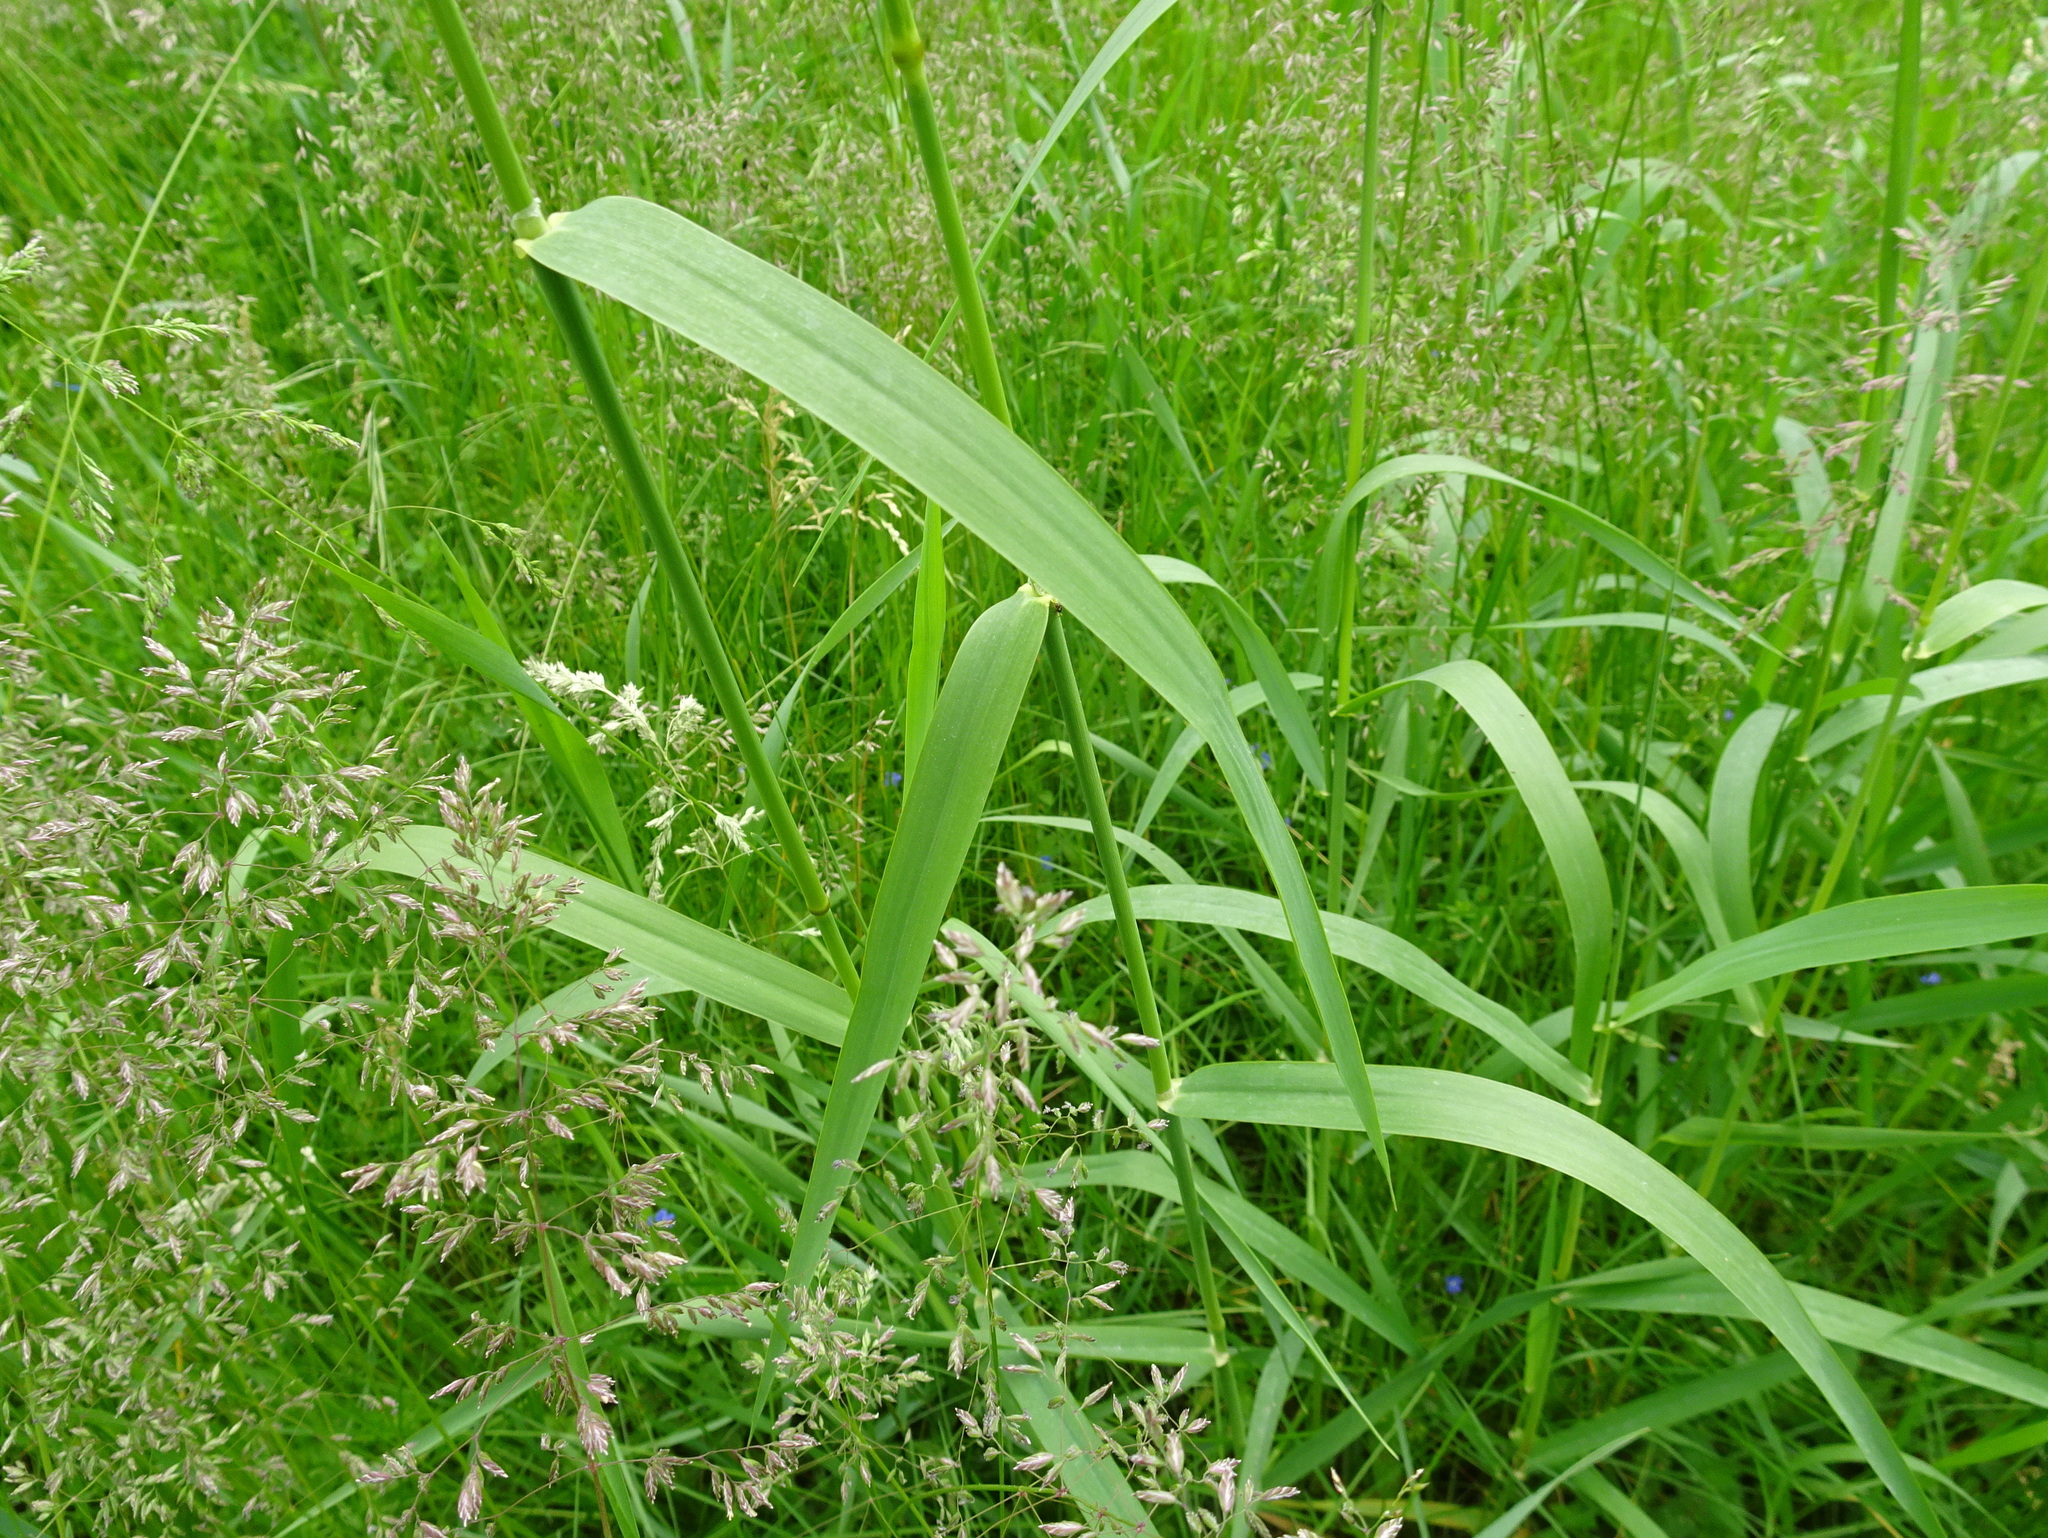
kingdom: Plantae
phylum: Tracheophyta
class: Liliopsida
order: Poales
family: Poaceae
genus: Phalaris
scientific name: Phalaris arundinacea
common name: Reed canary-grass
